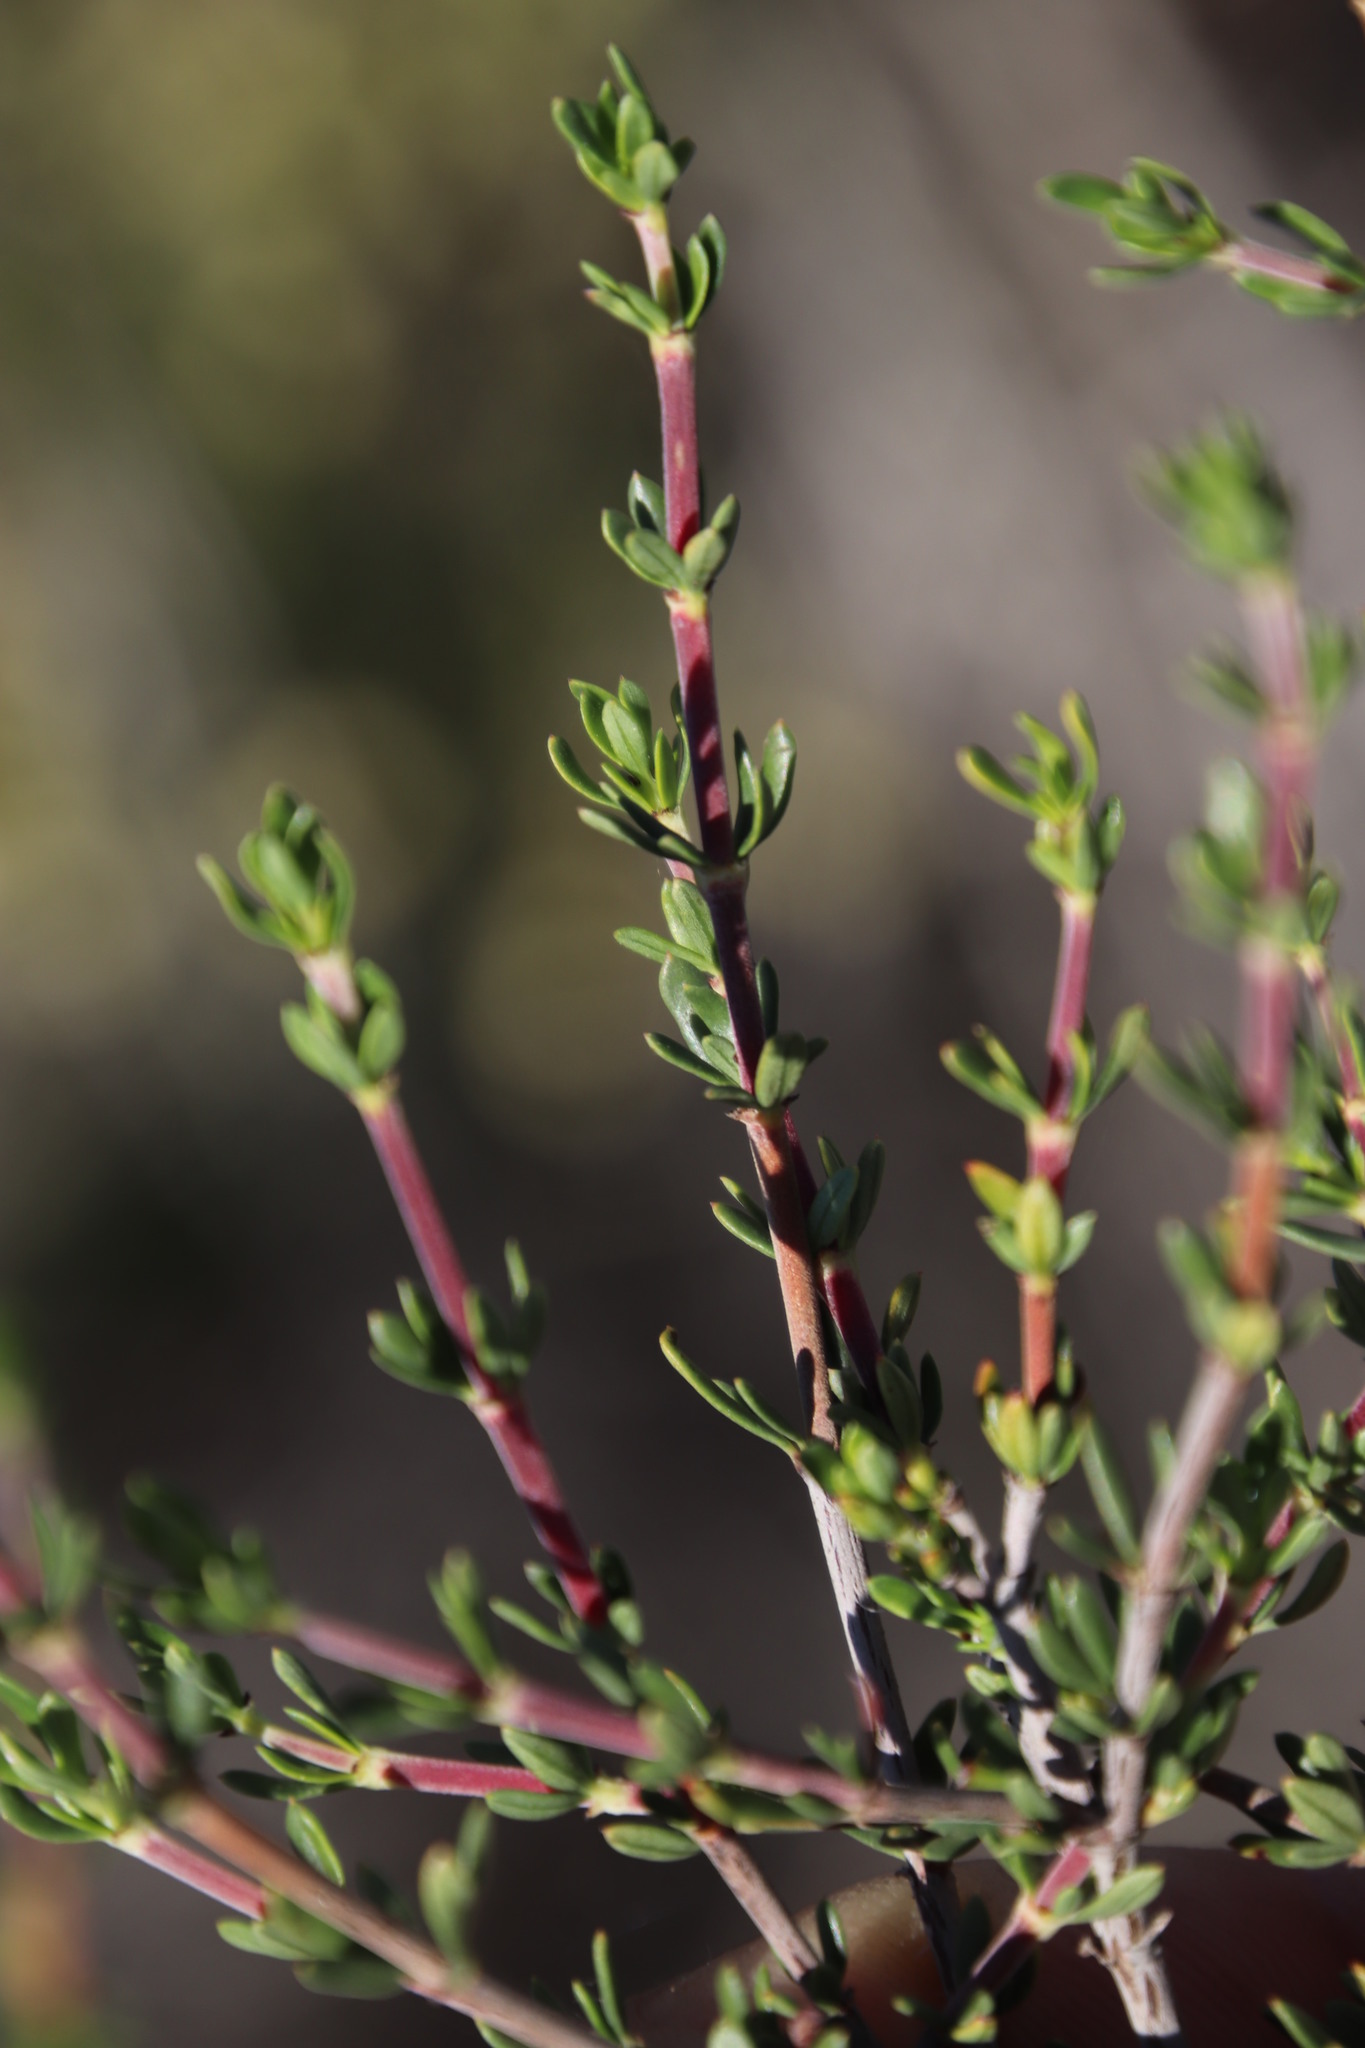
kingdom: Plantae
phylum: Tracheophyta
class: Magnoliopsida
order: Gentianales
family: Rubiaceae
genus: Anthospermum
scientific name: Anthospermum spathulatum
